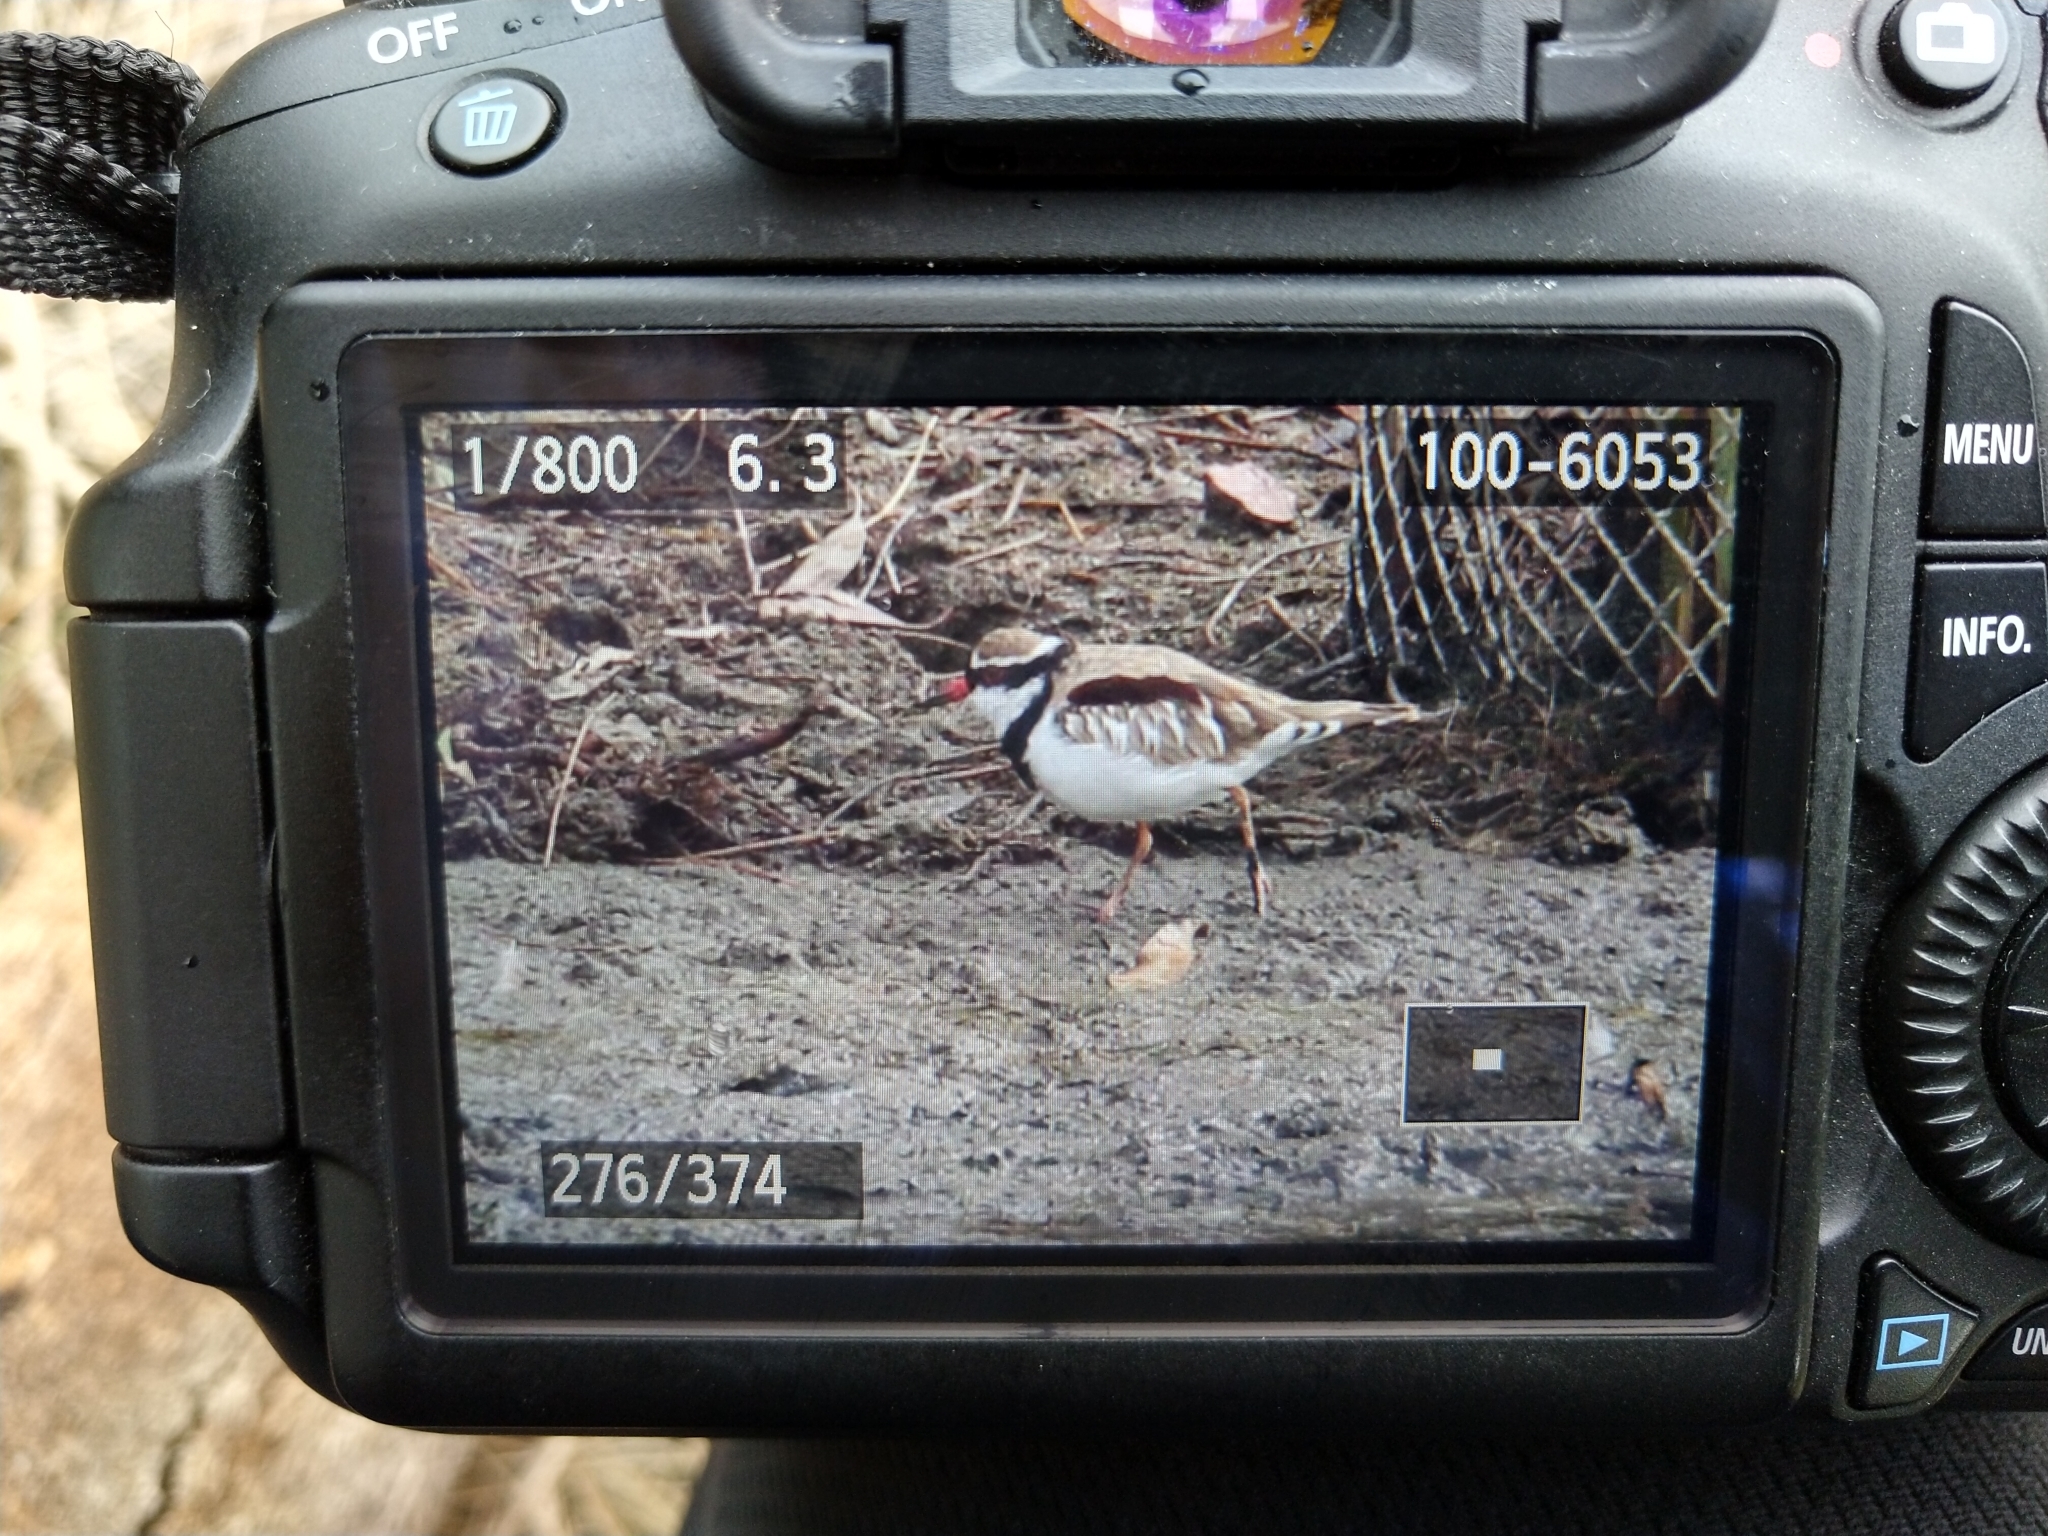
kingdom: Animalia
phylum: Chordata
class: Aves
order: Charadriiformes
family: Charadriidae
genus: Elseyornis
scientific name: Elseyornis melanops
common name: Black-fronted dotterel
